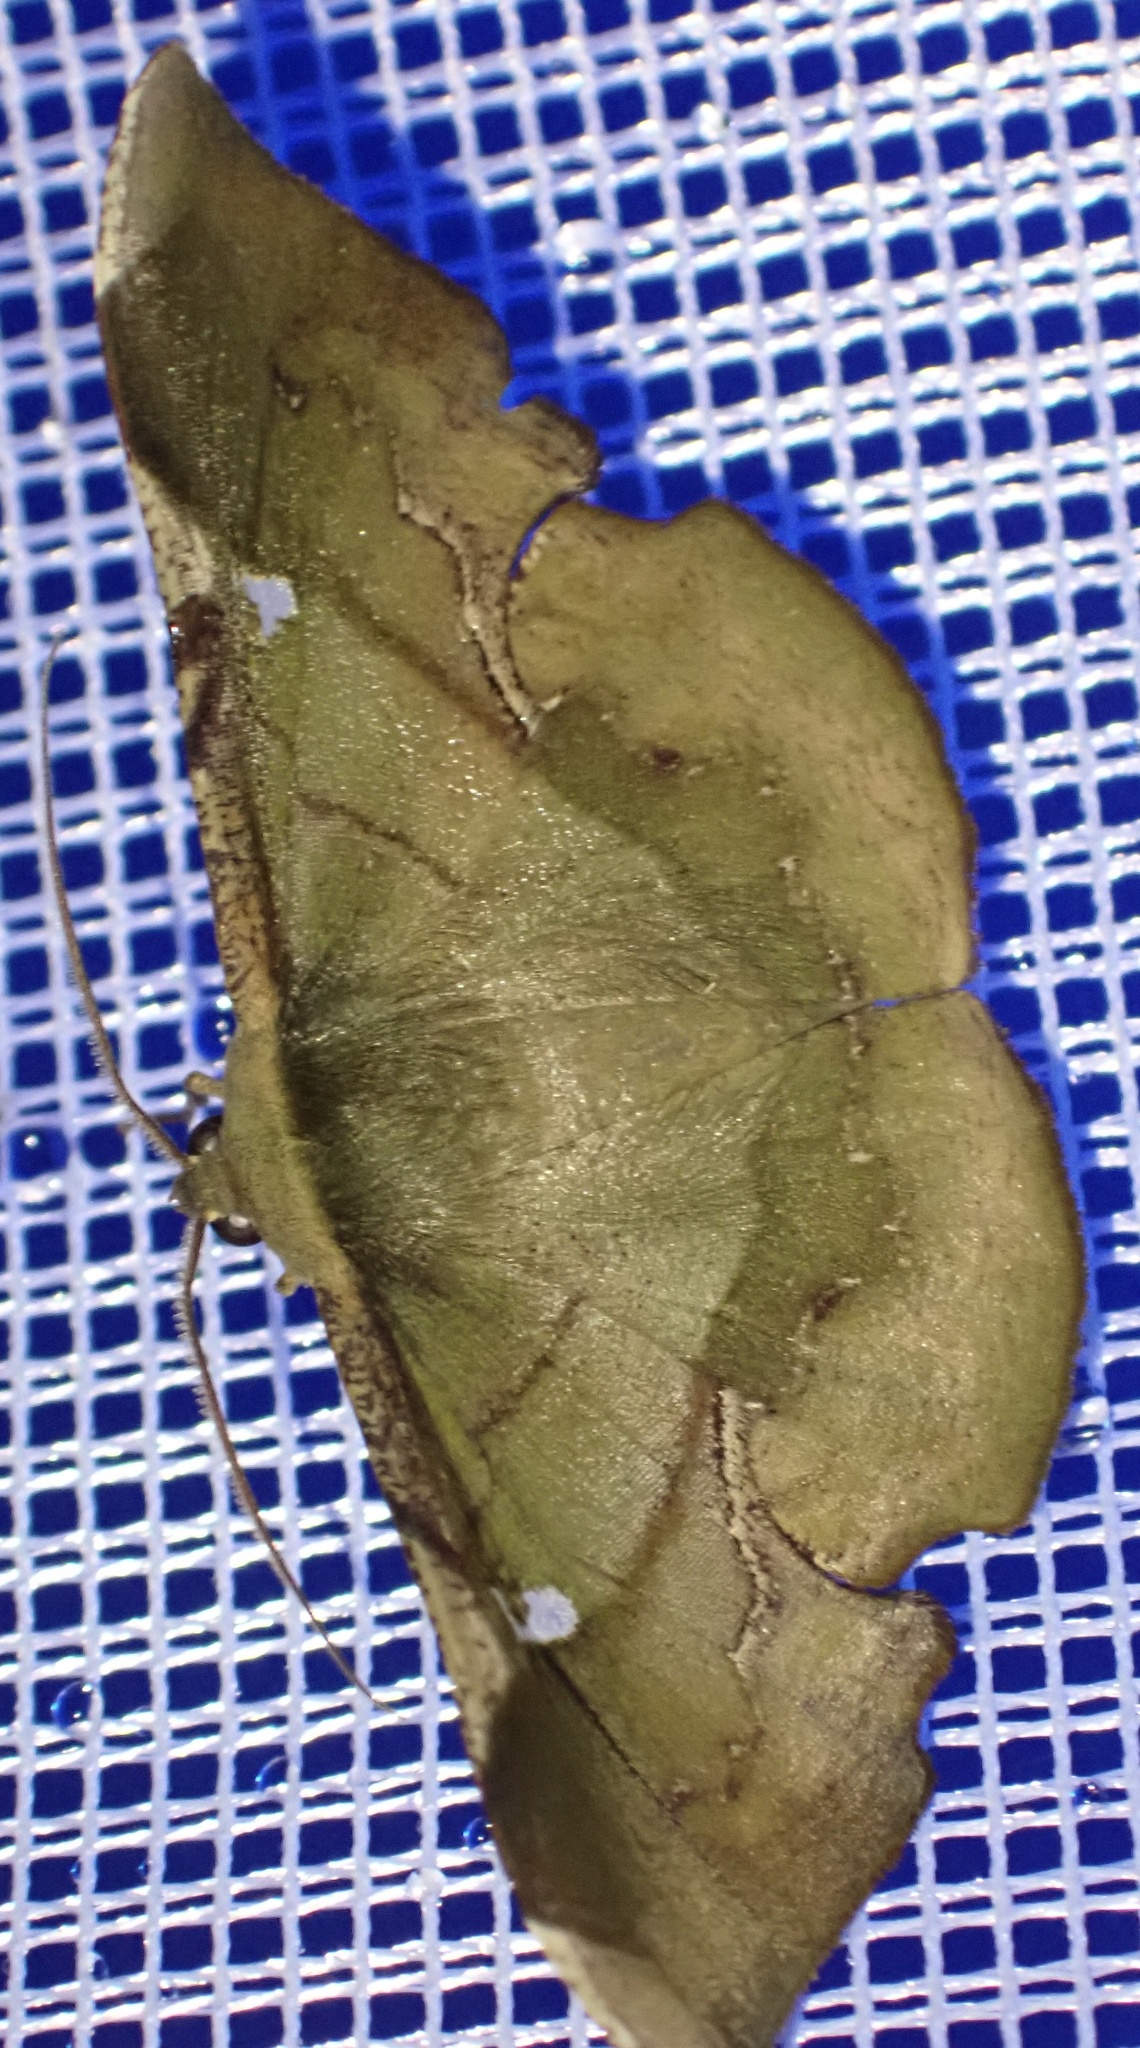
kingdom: Animalia
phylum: Arthropoda
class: Insecta
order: Lepidoptera
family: Geometridae
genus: Fascellina
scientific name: Fascellina papuensis
